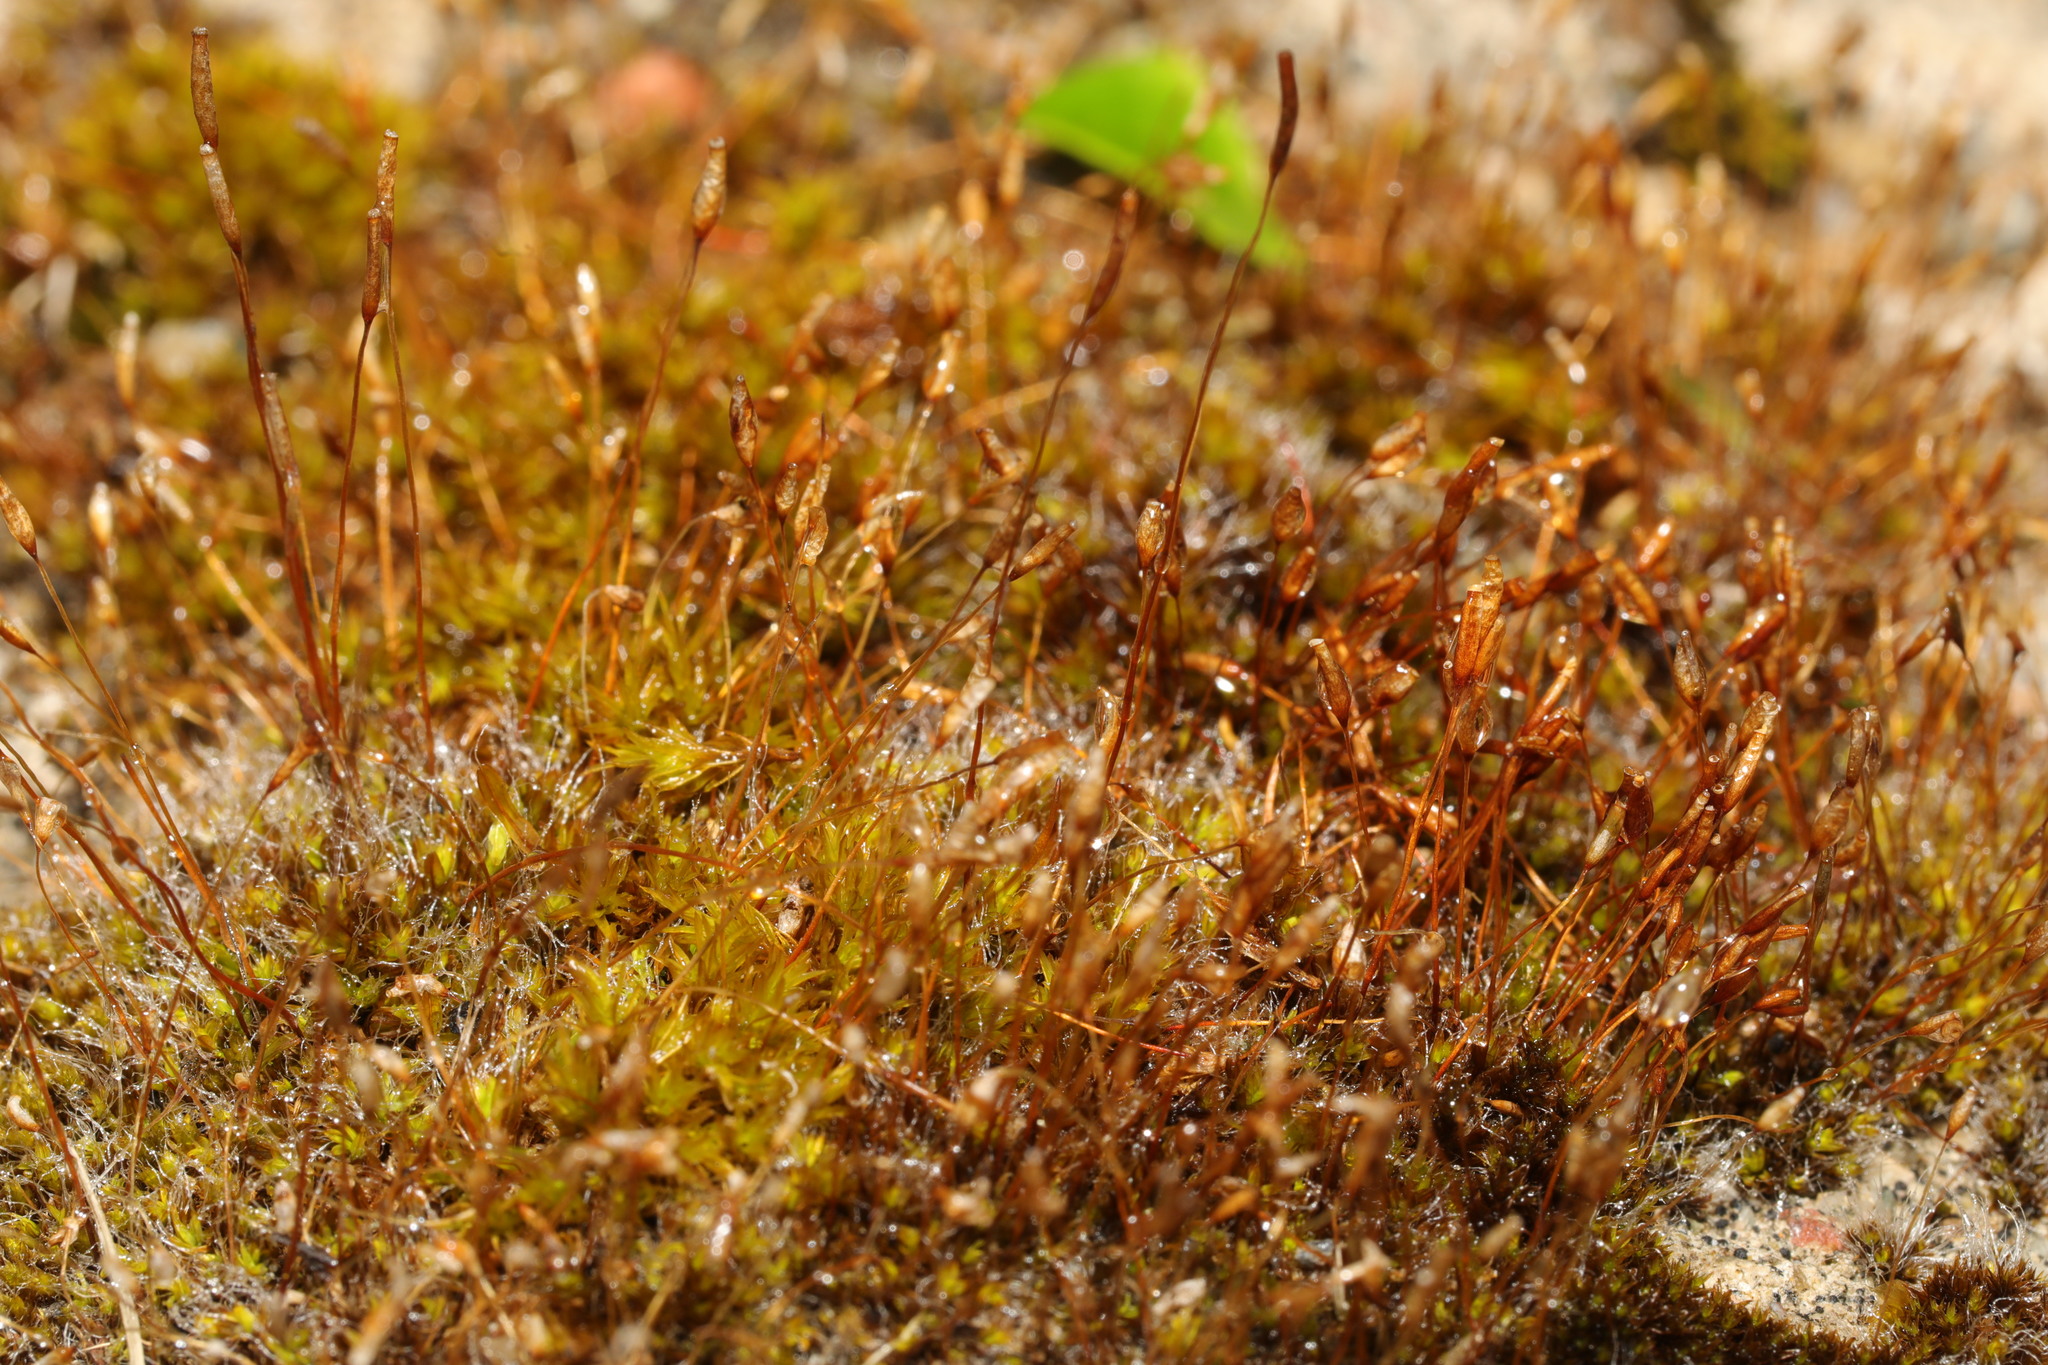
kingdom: Plantae
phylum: Bryophyta
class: Bryopsida
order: Pottiales
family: Pottiaceae
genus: Tortula
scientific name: Tortula muralis
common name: Wall screw-moss
